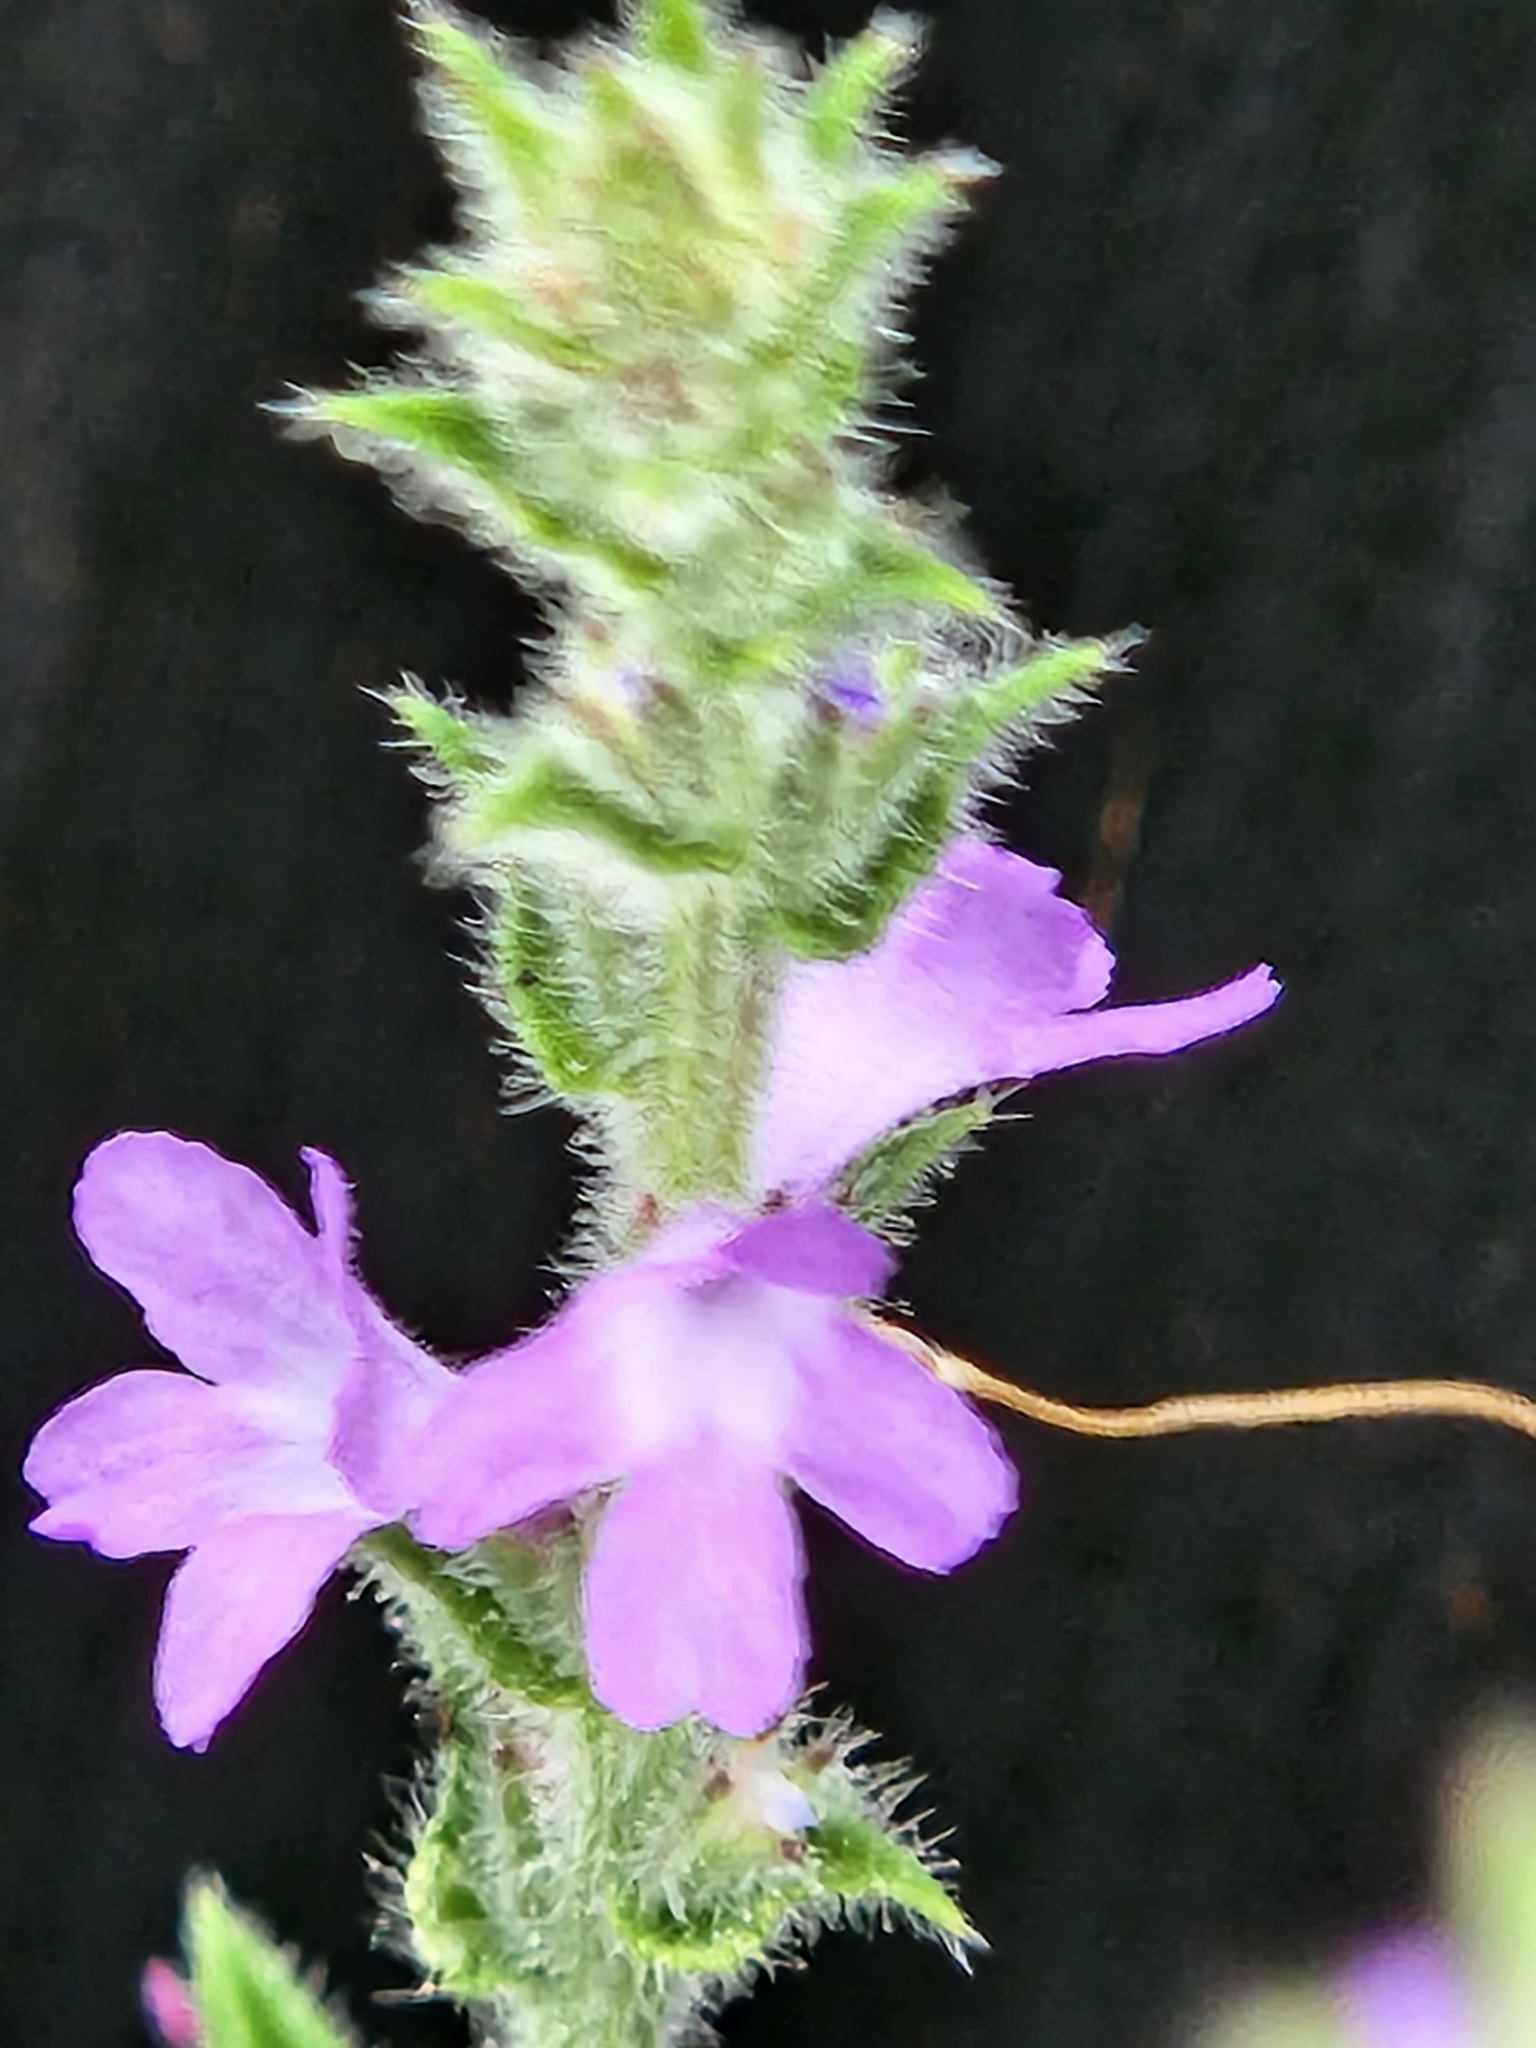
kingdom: Plantae
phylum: Tracheophyta
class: Magnoliopsida
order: Lamiales
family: Verbenaceae
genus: Verbena
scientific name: Verbena canescens
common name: Gray vervain
